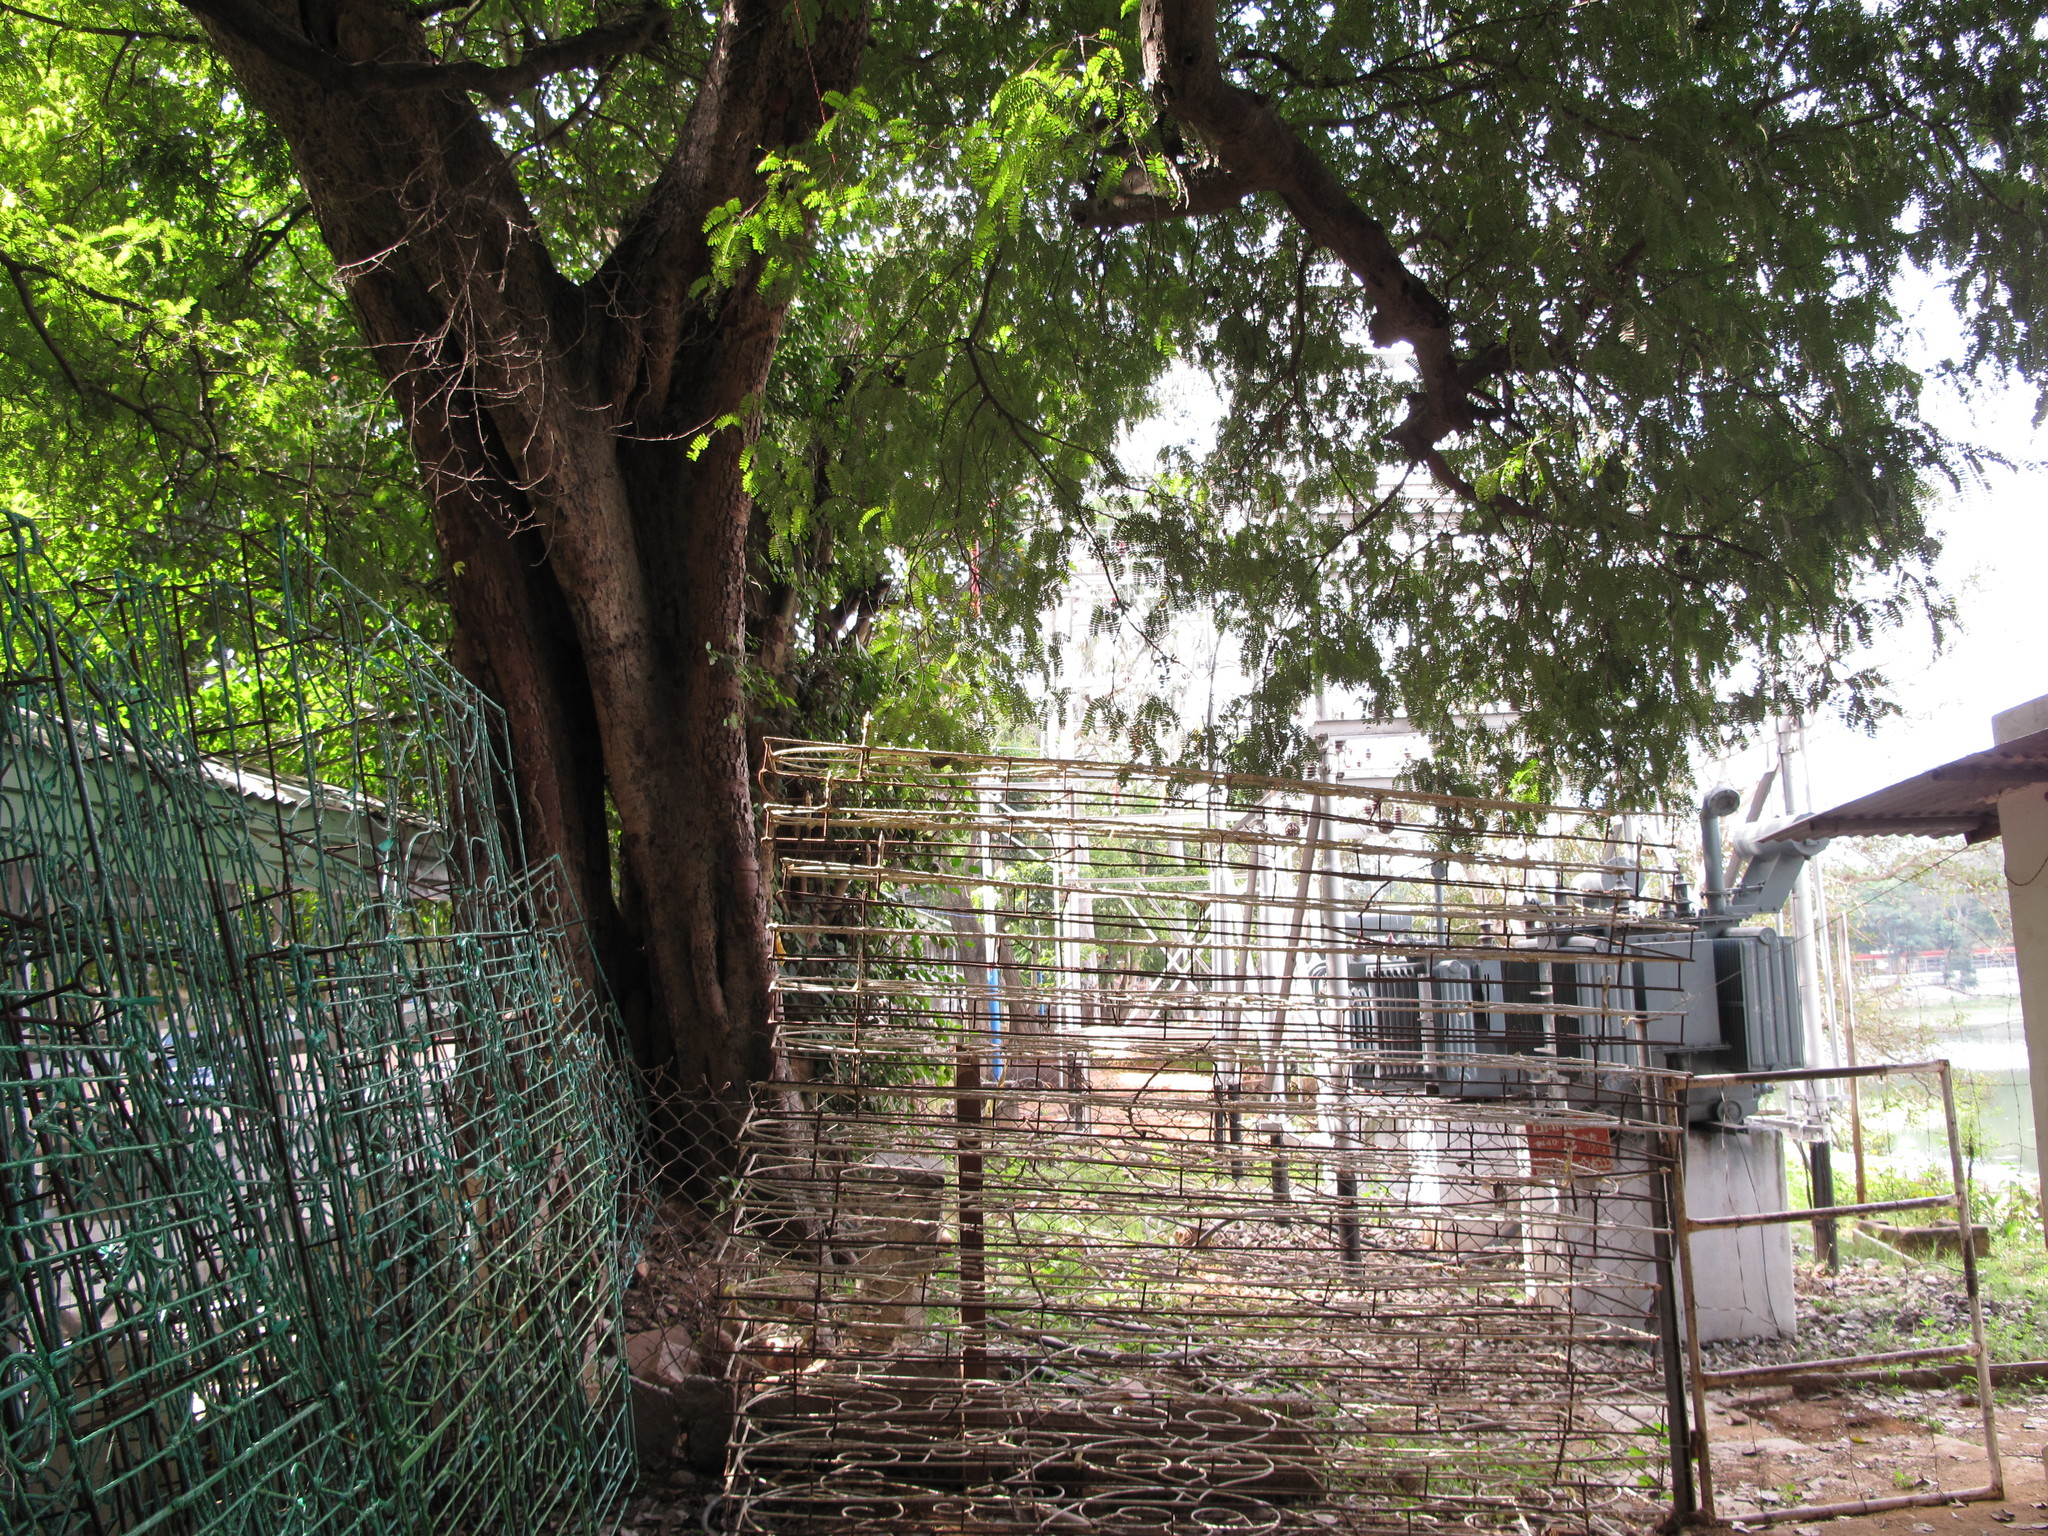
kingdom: Plantae
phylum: Tracheophyta
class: Magnoliopsida
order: Rosales
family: Moraceae
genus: Ficus
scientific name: Ficus religiosa
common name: Bodhi tree
